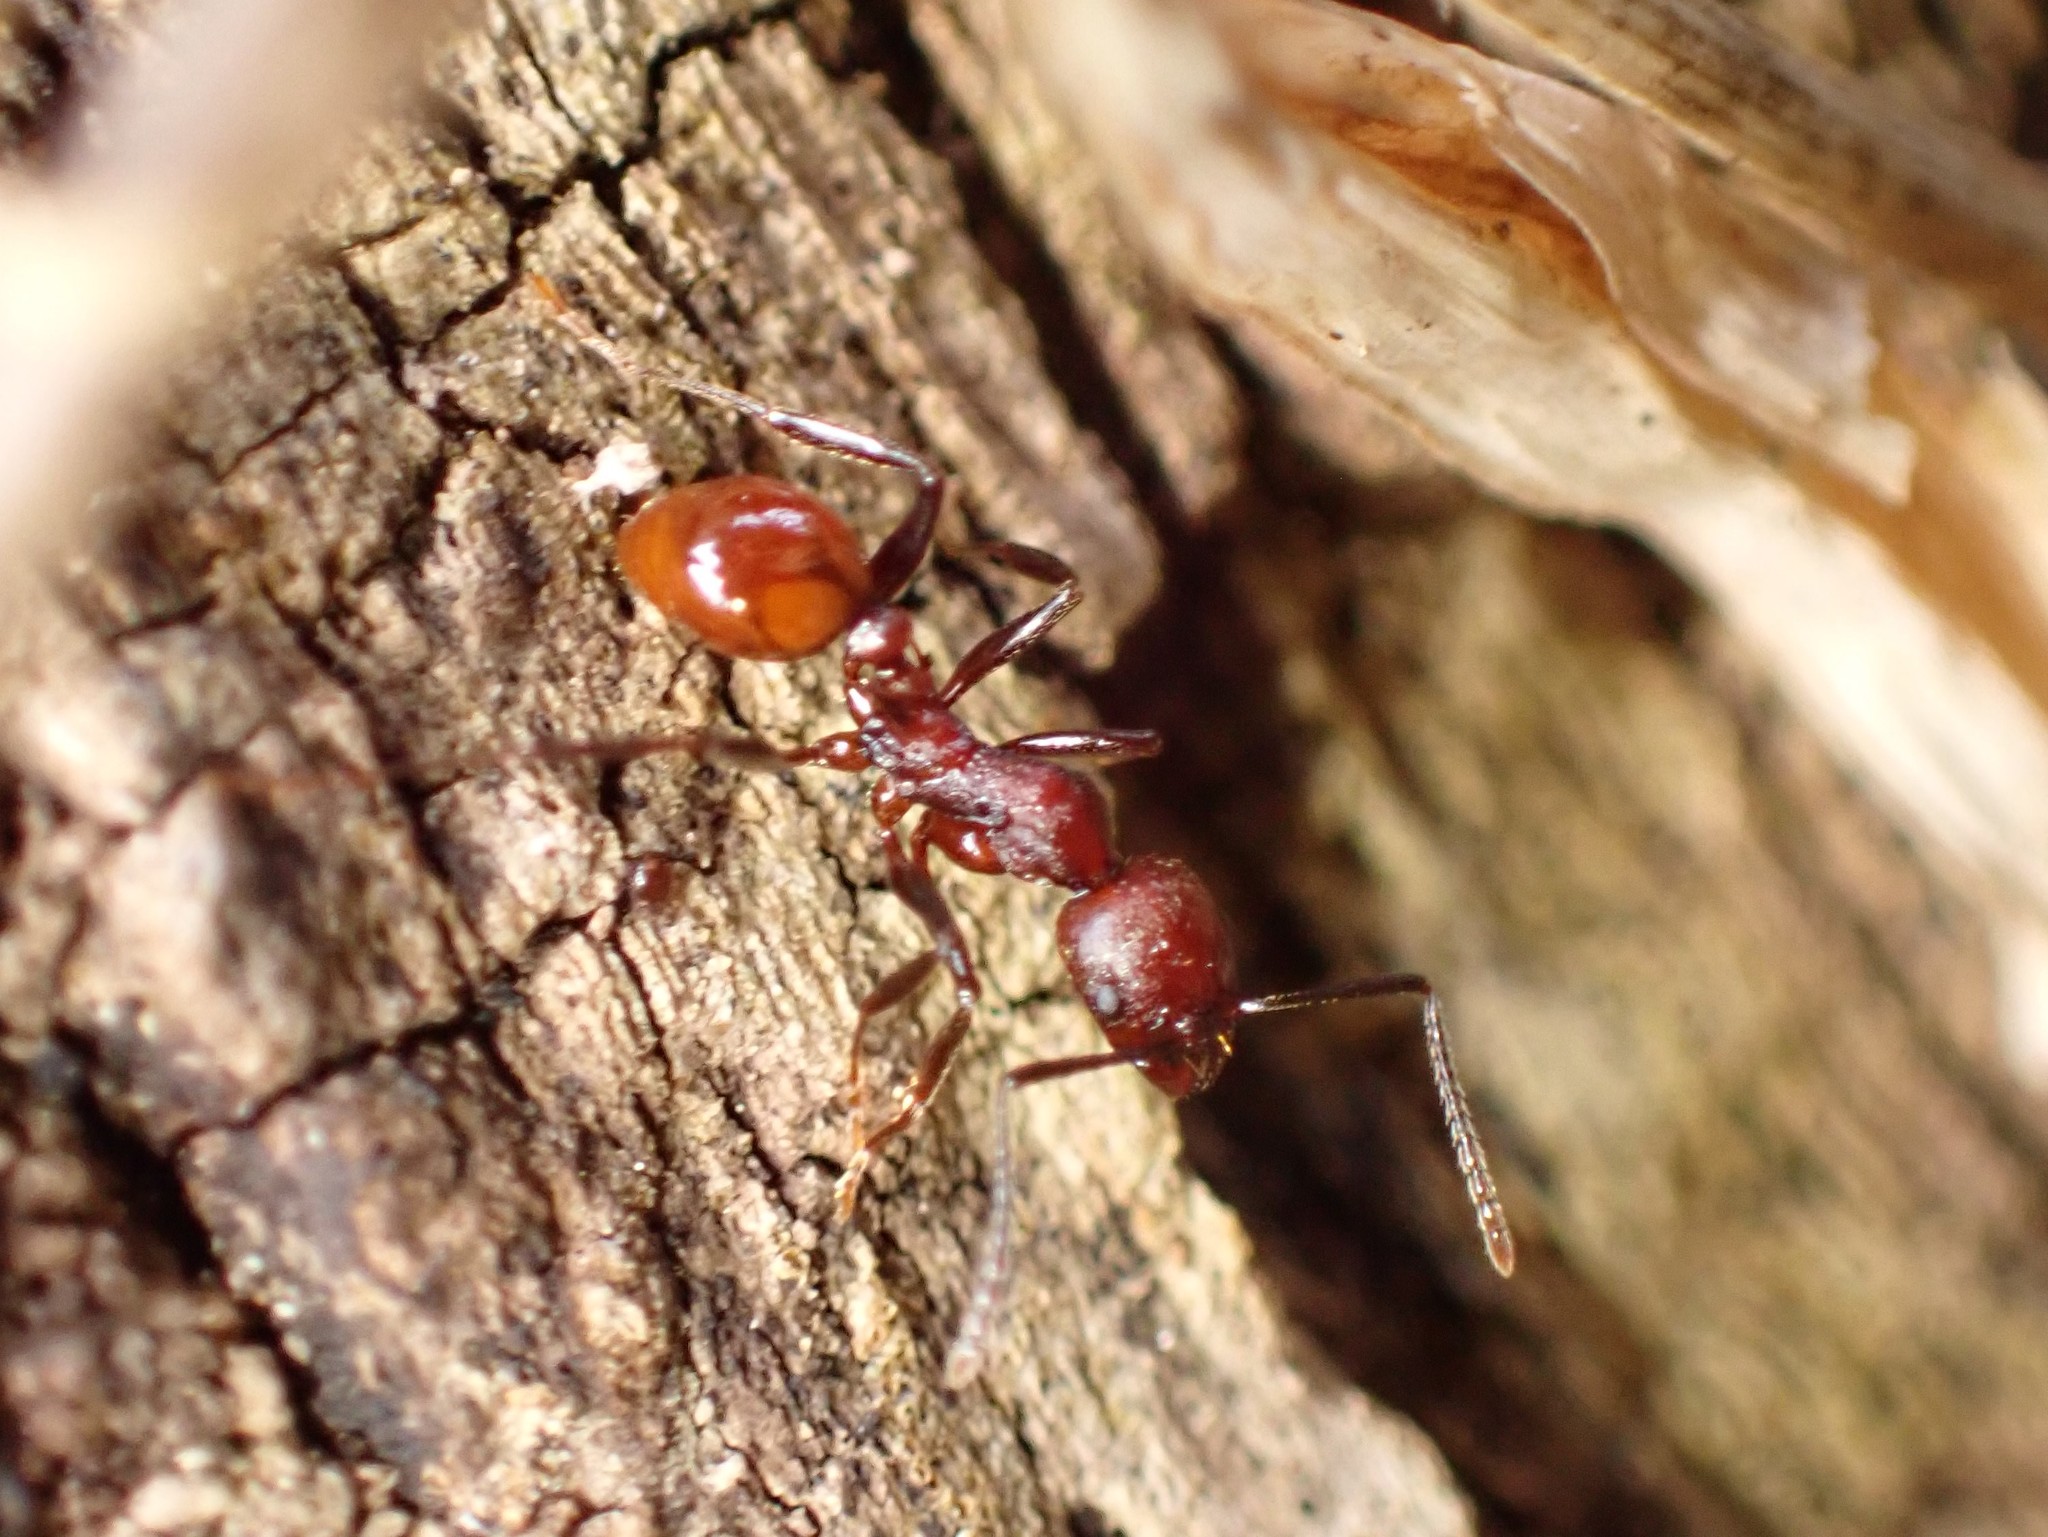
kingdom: Animalia
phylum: Arthropoda
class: Insecta
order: Hymenoptera
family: Formicidae
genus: Aphaenogaster
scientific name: Aphaenogaster tennesseensis
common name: Tennessee thread-waisted ant
